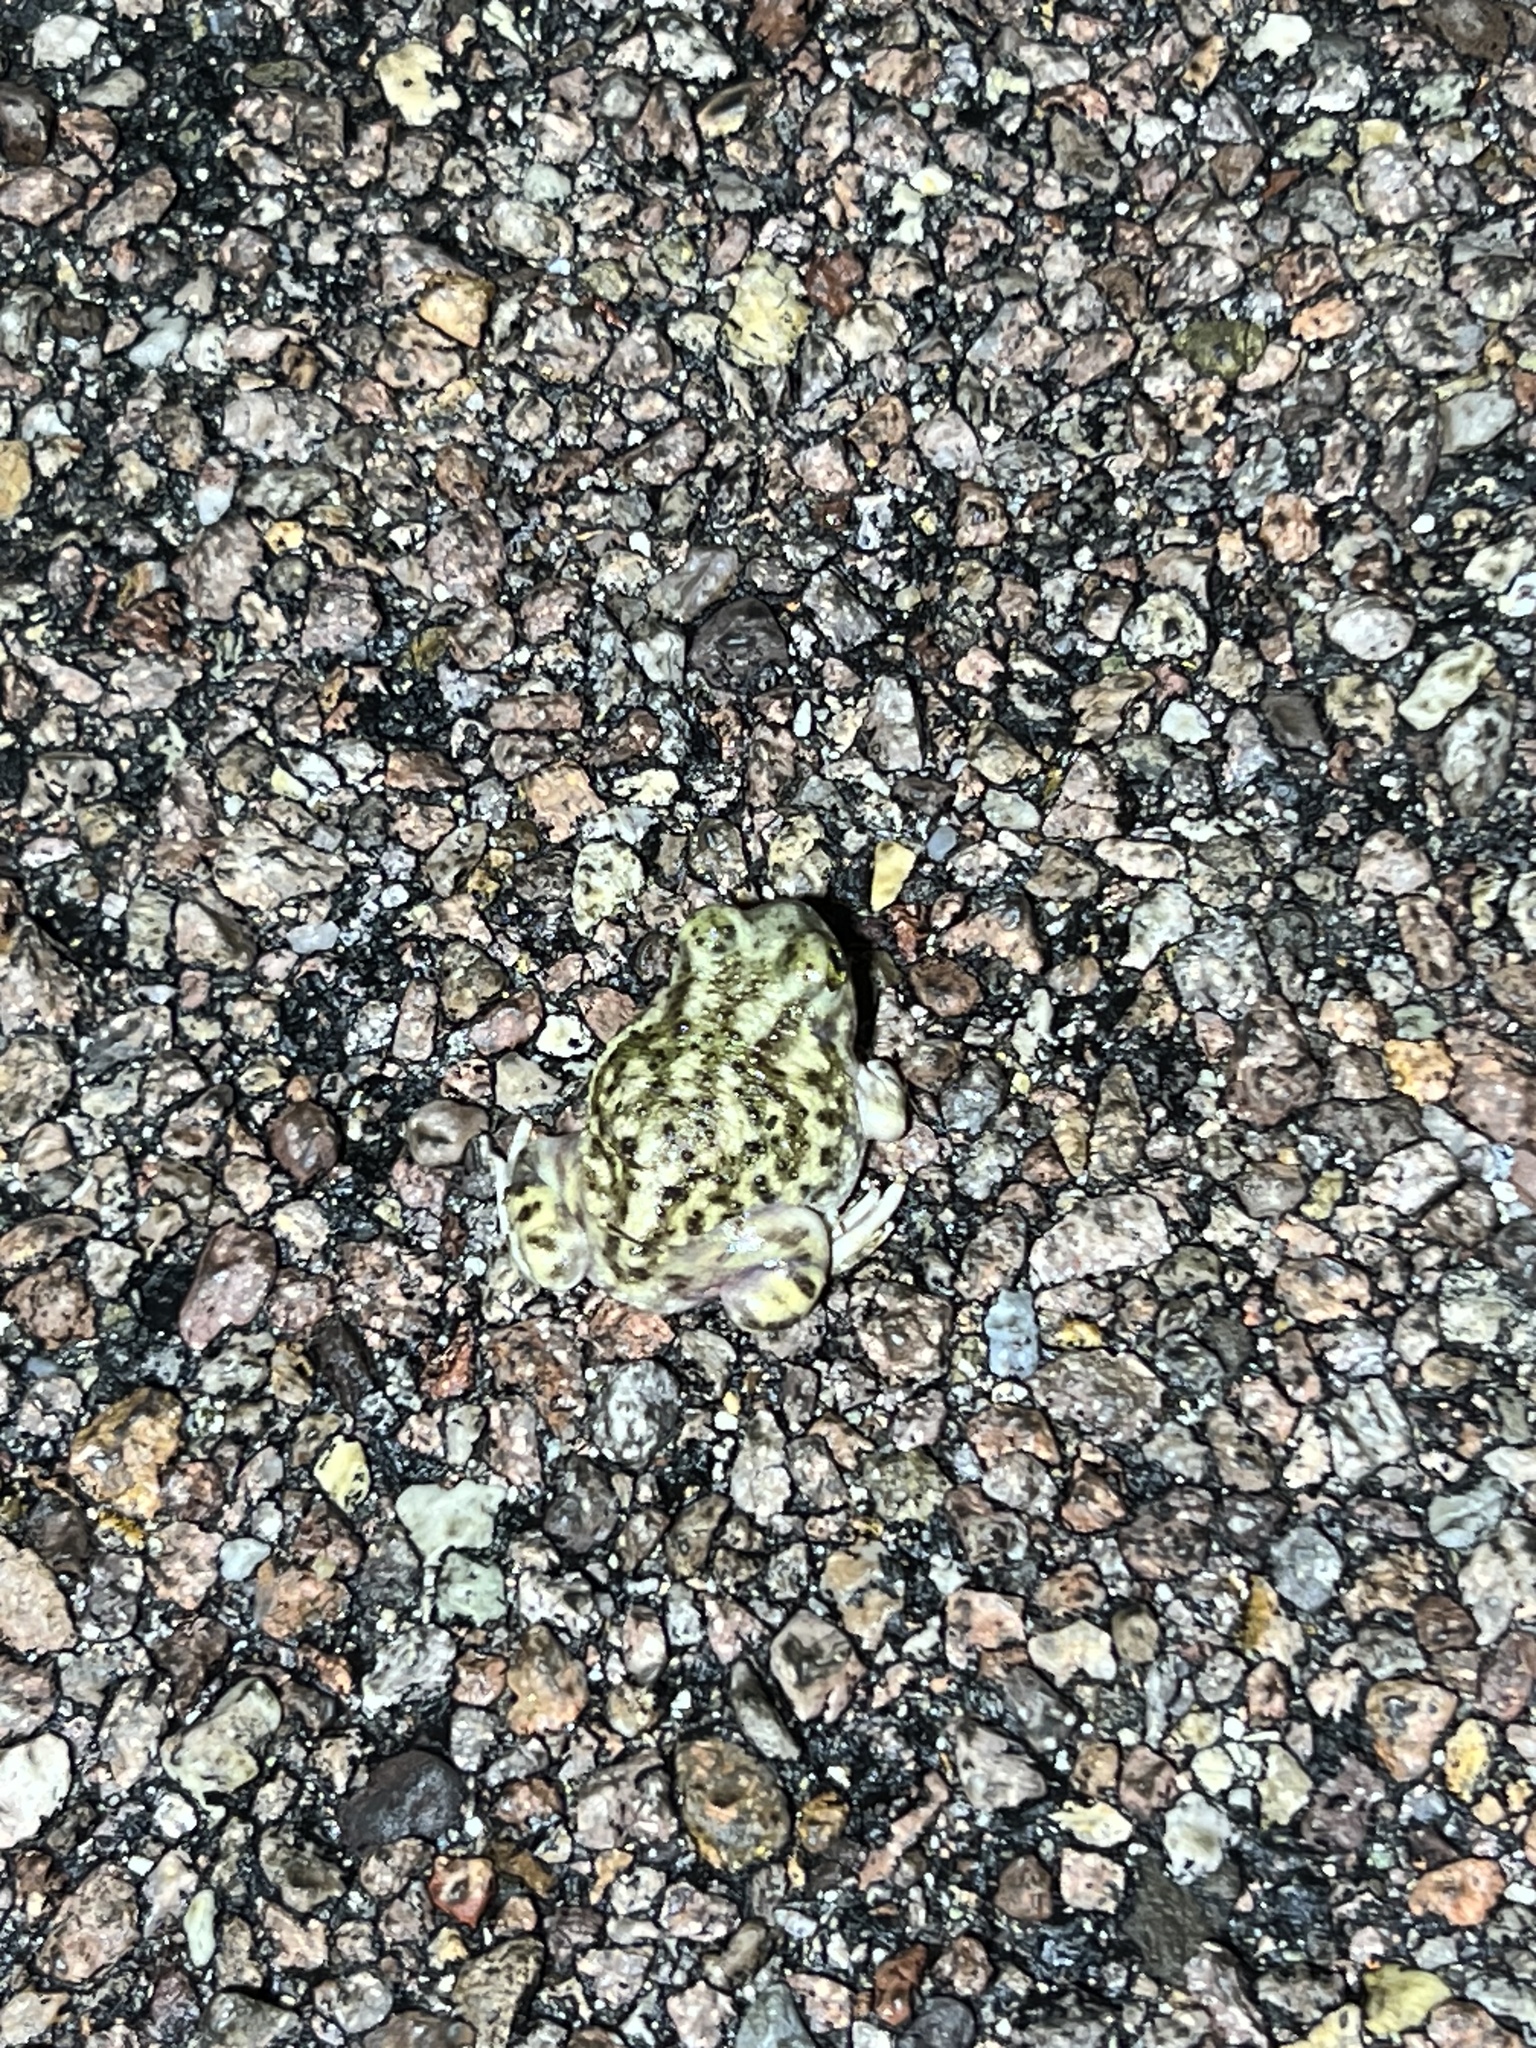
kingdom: Animalia
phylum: Chordata
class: Amphibia
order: Anura
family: Scaphiopodidae
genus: Scaphiopus
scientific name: Scaphiopus couchii
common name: Couch's spadefoot toad
